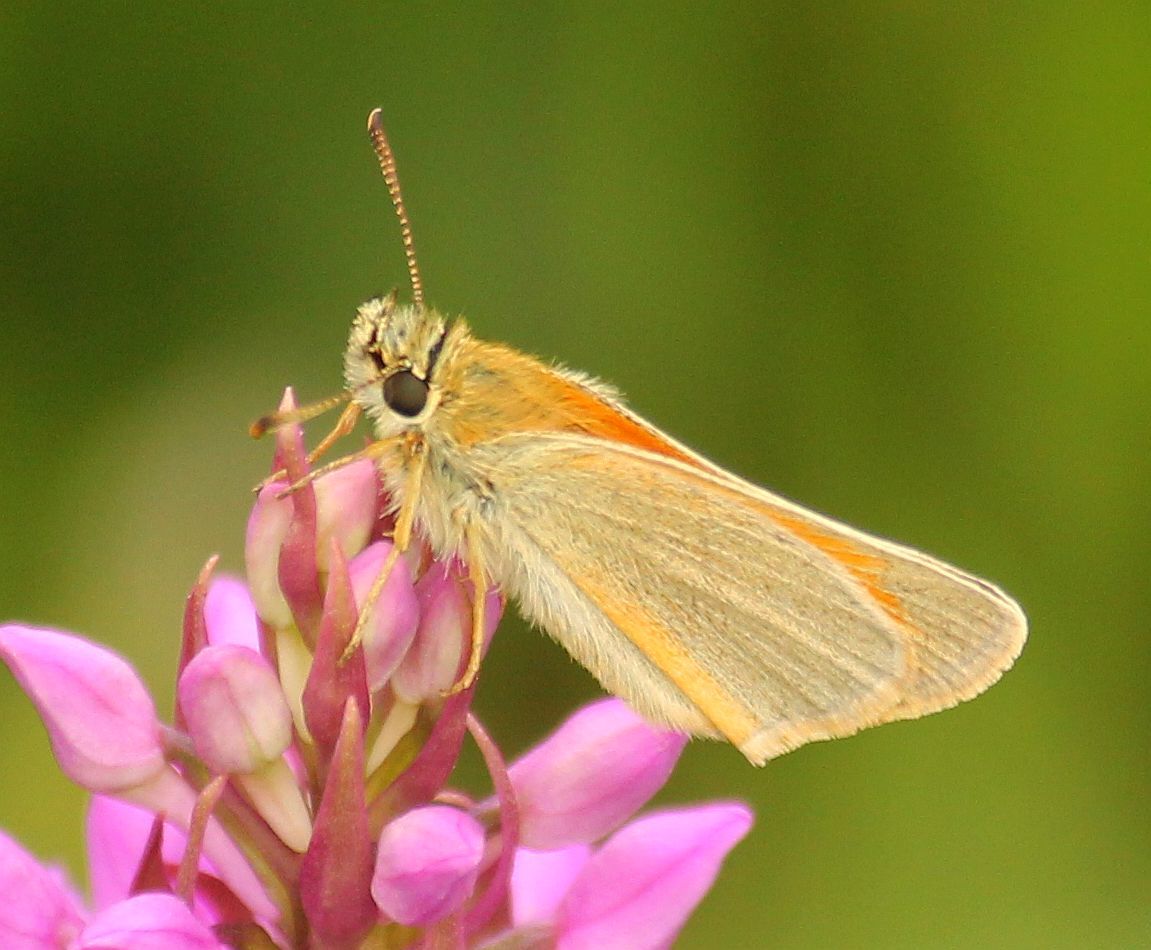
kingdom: Animalia
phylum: Arthropoda
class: Insecta
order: Lepidoptera
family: Hesperiidae
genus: Thymelicus
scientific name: Thymelicus sylvestris
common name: Small skipper
